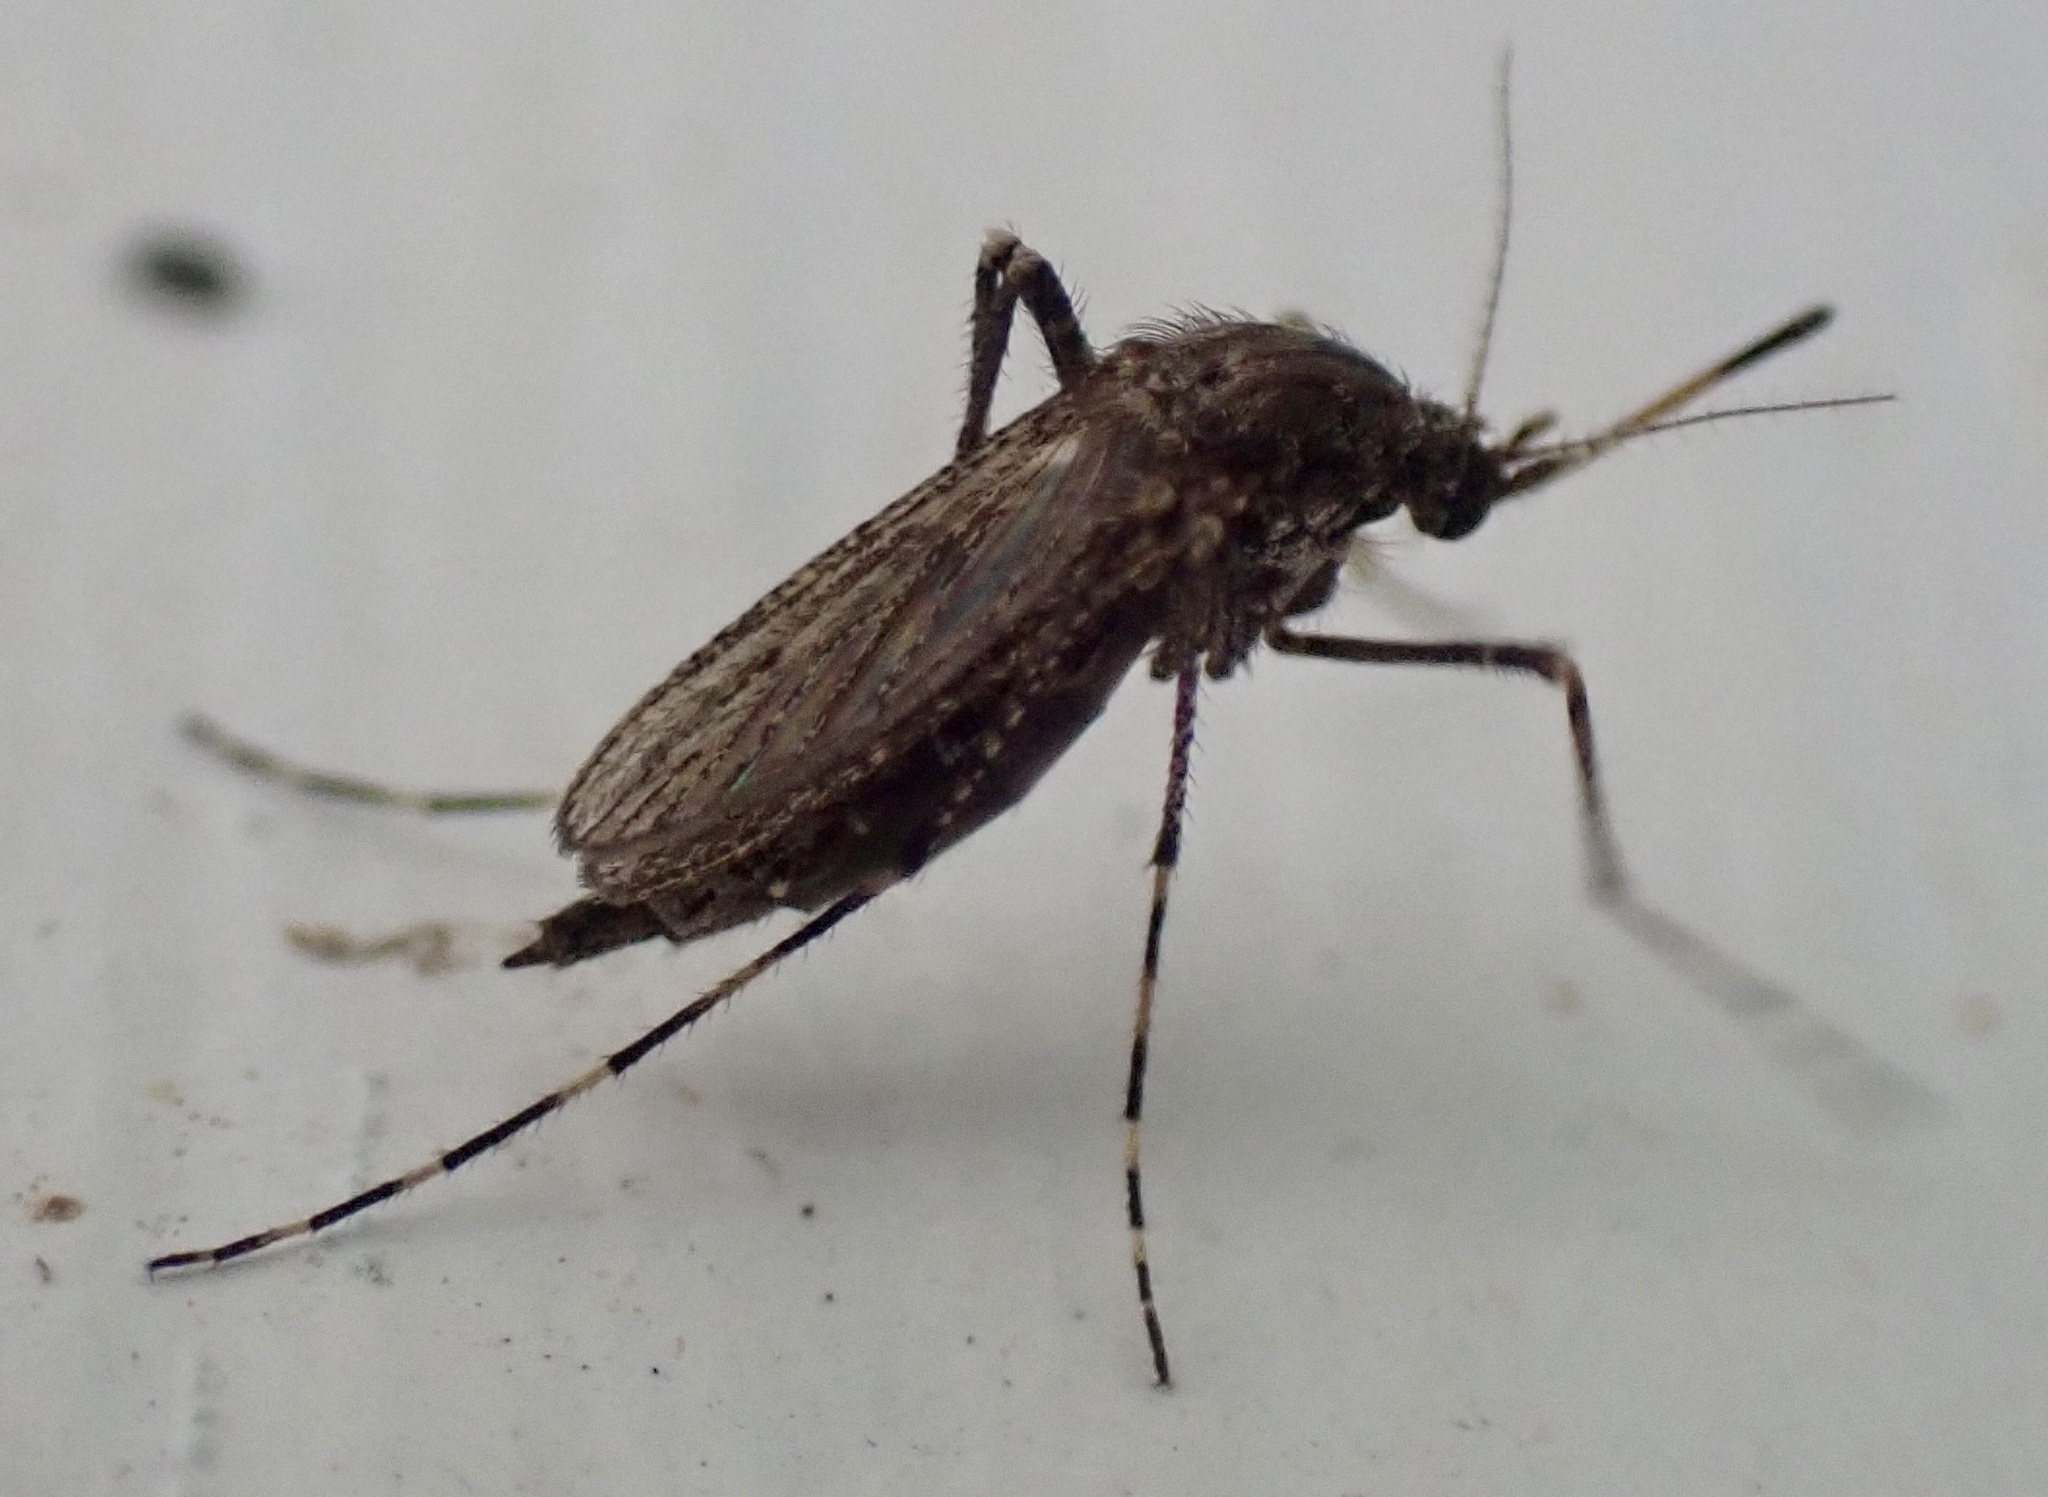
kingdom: Animalia
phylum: Arthropoda
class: Insecta
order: Diptera
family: Culicidae
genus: Psorophora
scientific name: Psorophora columbiae
